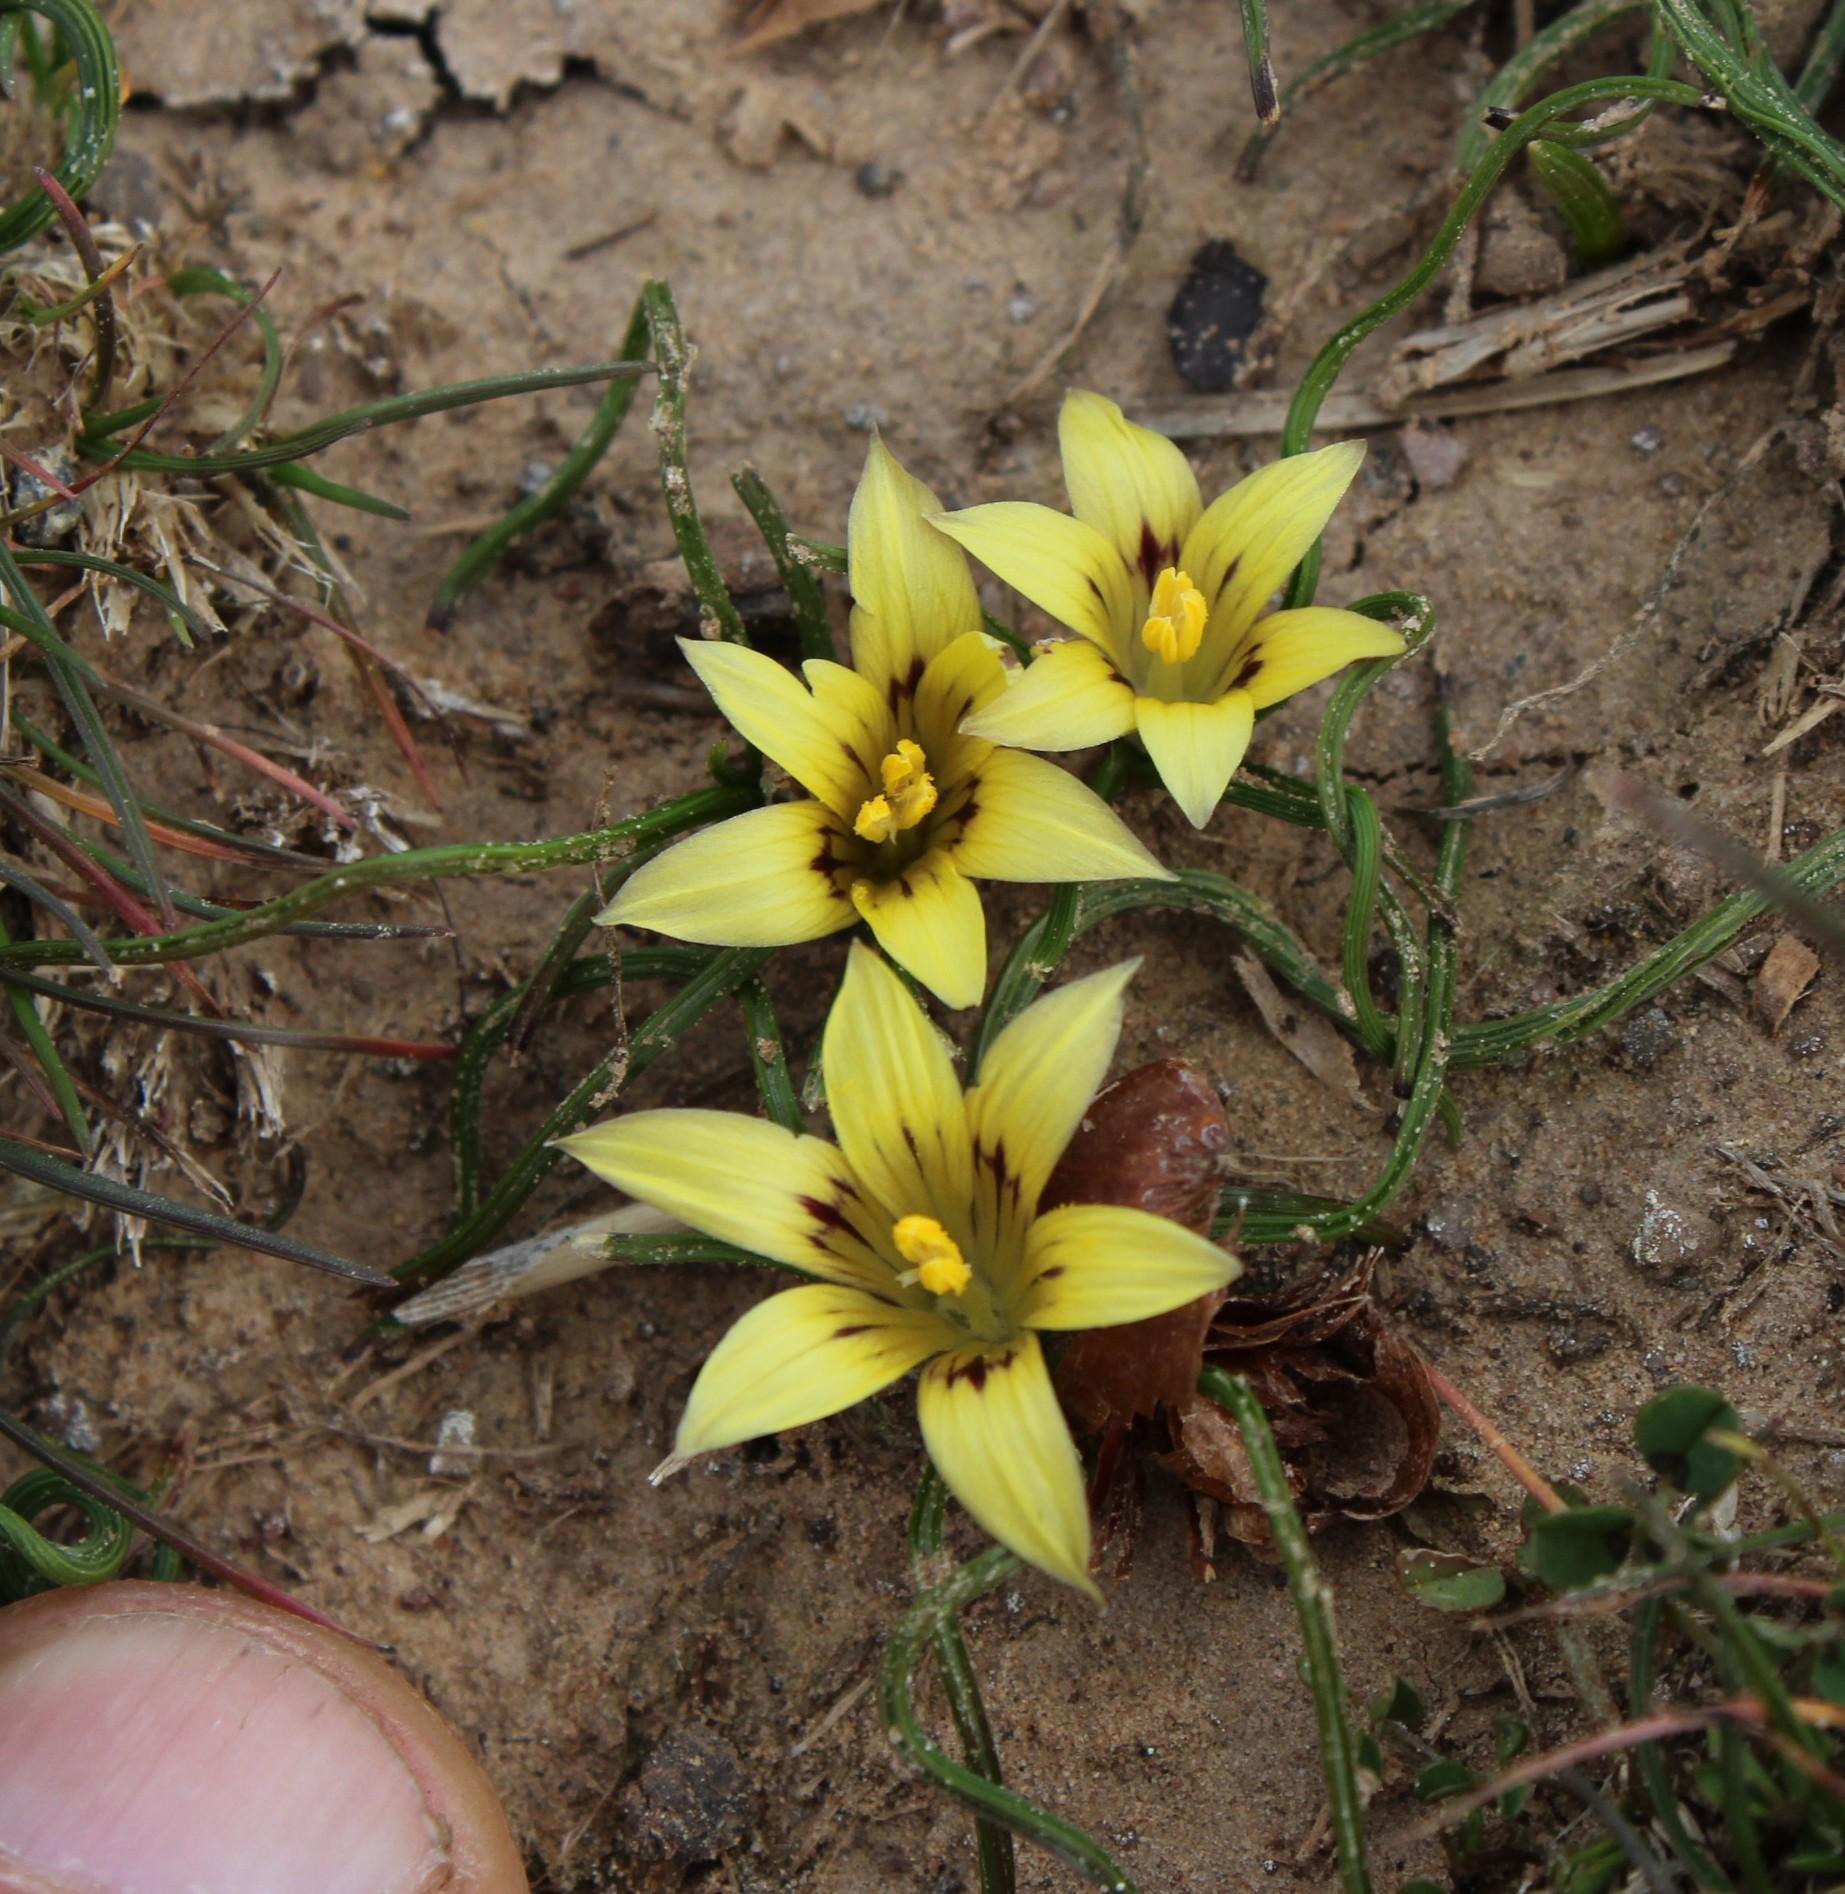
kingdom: Plantae
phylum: Tracheophyta
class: Liliopsida
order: Asparagales
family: Iridaceae
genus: Romulea
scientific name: Romulea austinii
